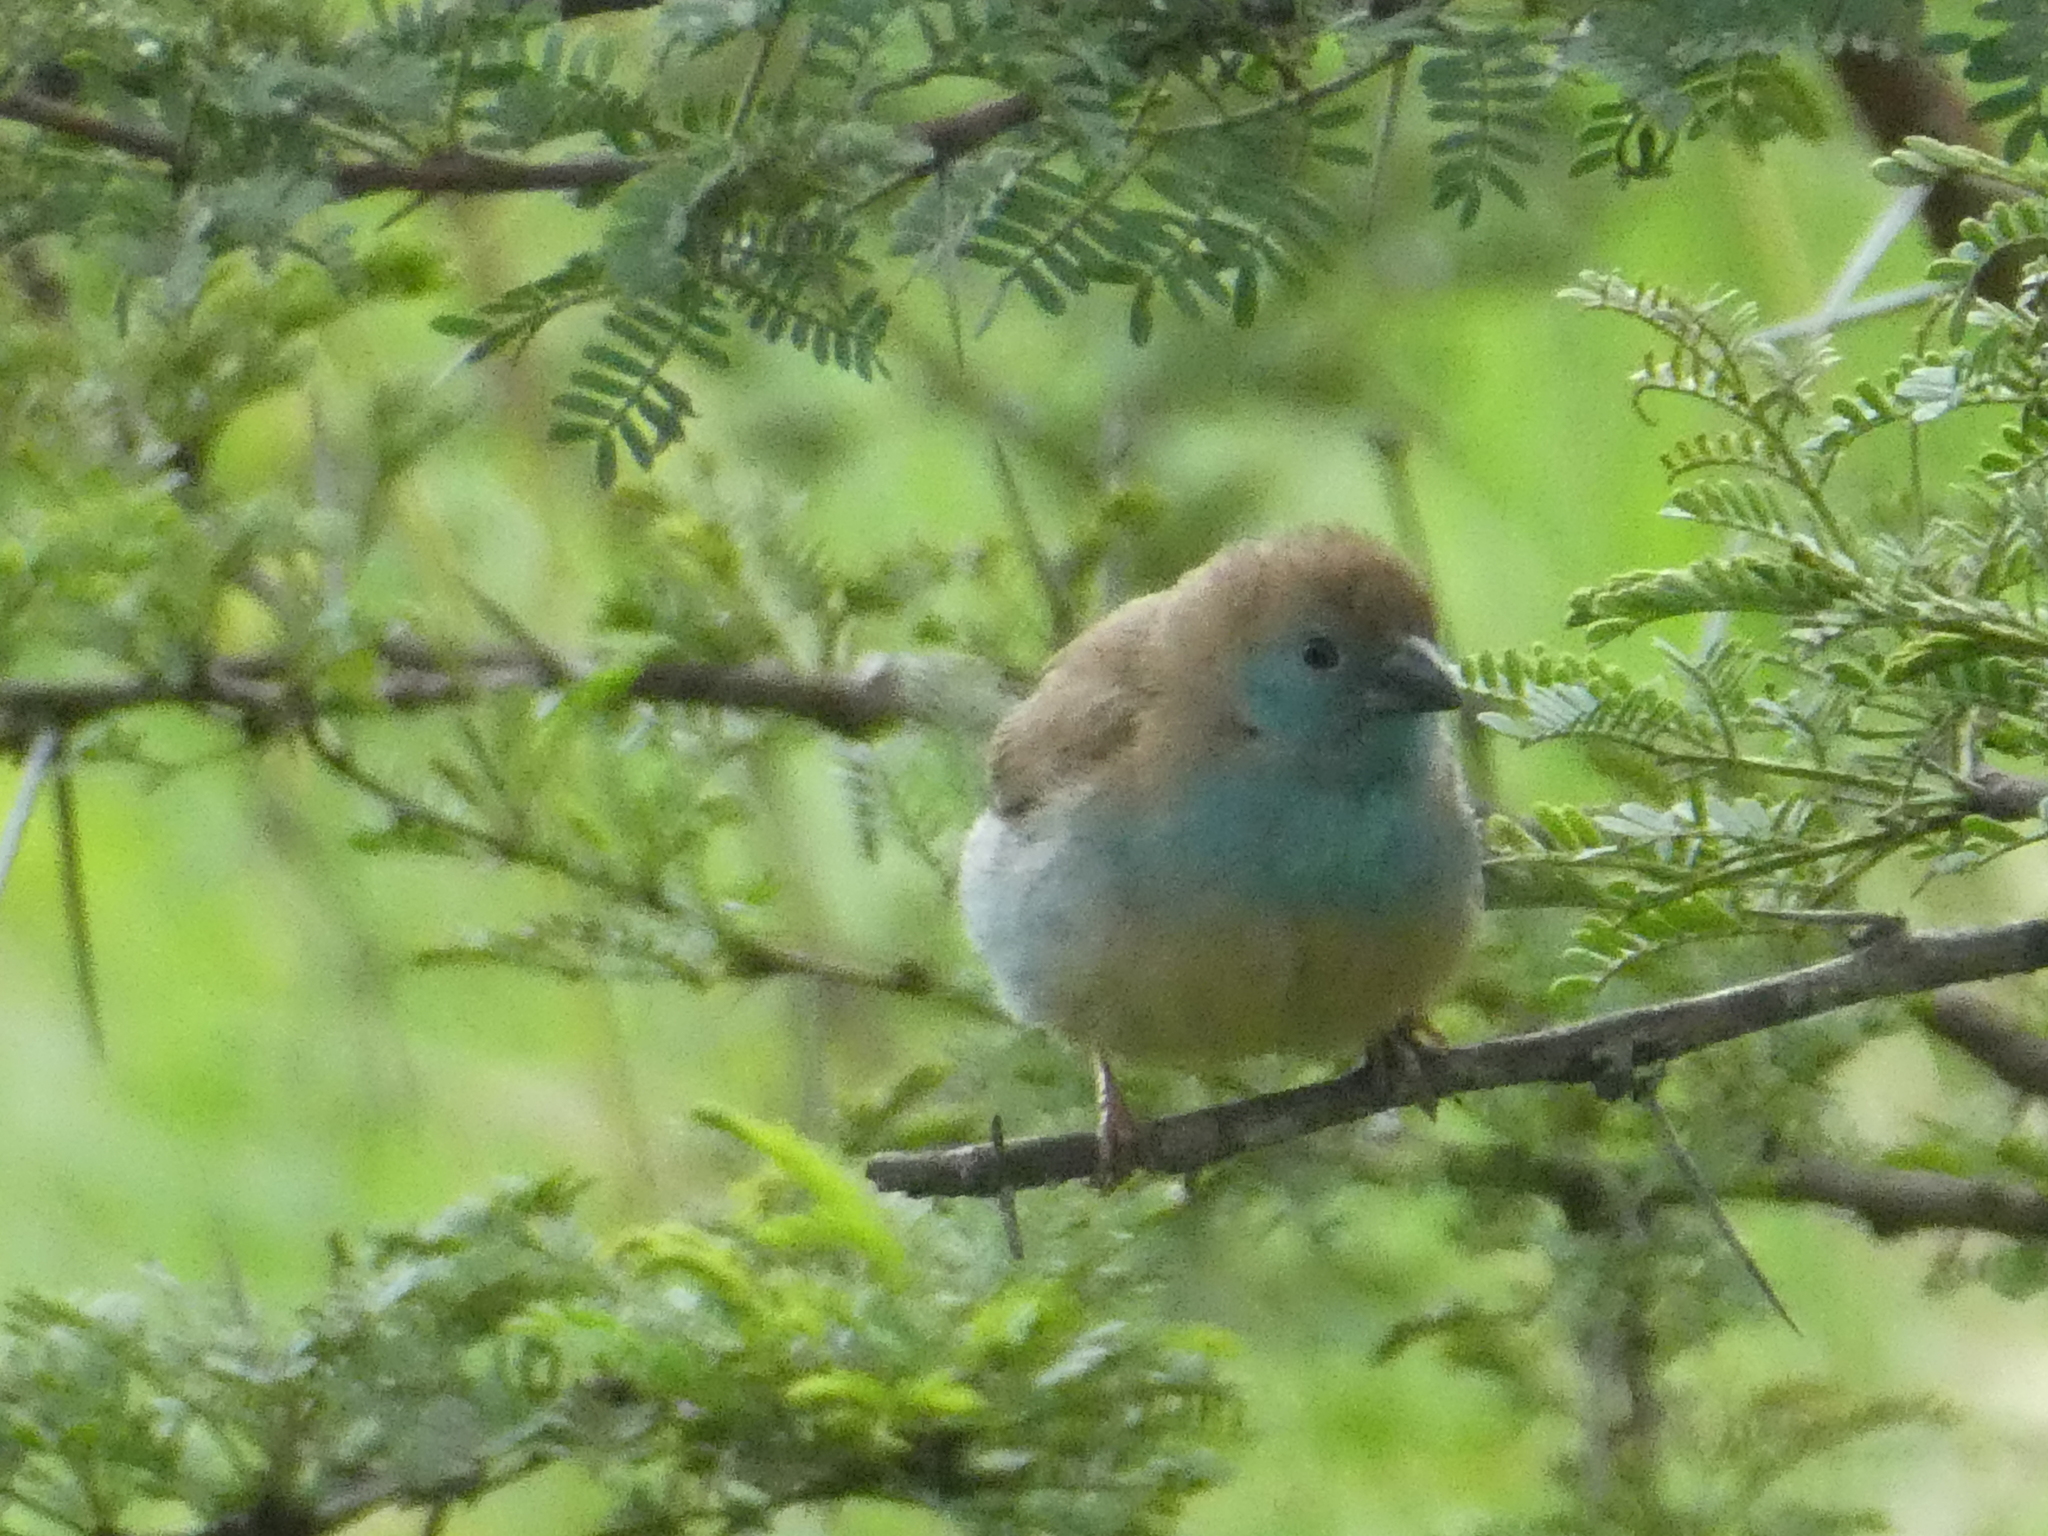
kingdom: Animalia
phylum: Chordata
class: Aves
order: Passeriformes
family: Estrildidae
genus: Uraeginthus
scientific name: Uraeginthus angolensis
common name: Blue waxbill
